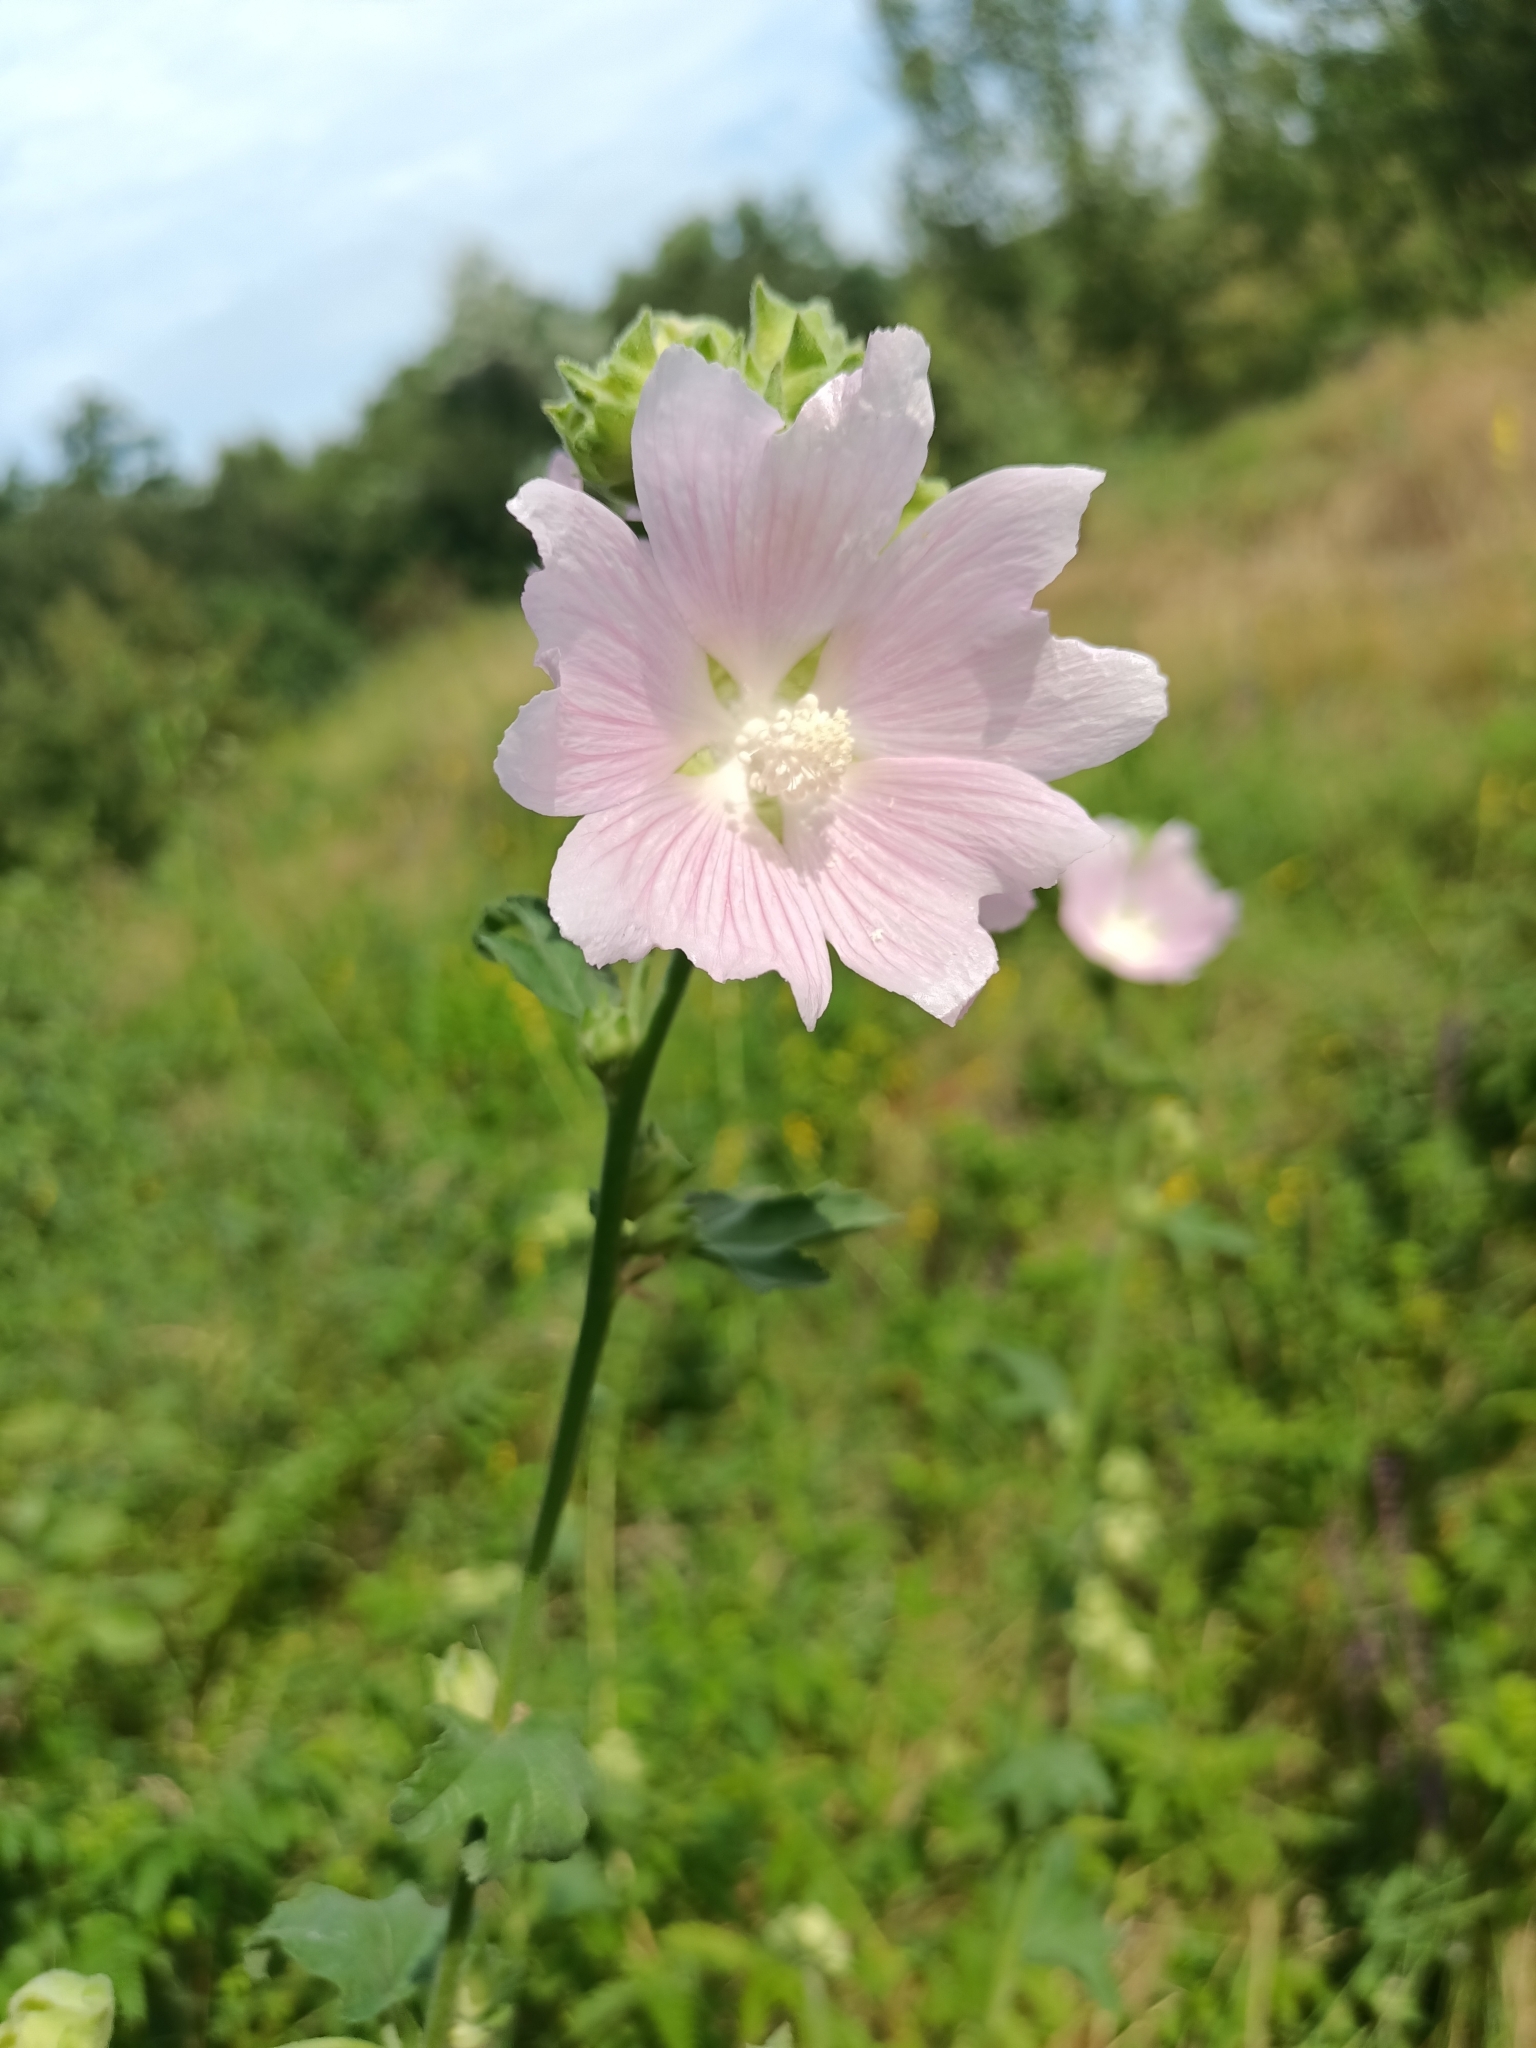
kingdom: Plantae
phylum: Tracheophyta
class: Magnoliopsida
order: Malvales
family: Malvaceae
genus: Malva
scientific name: Malva thuringiaca
